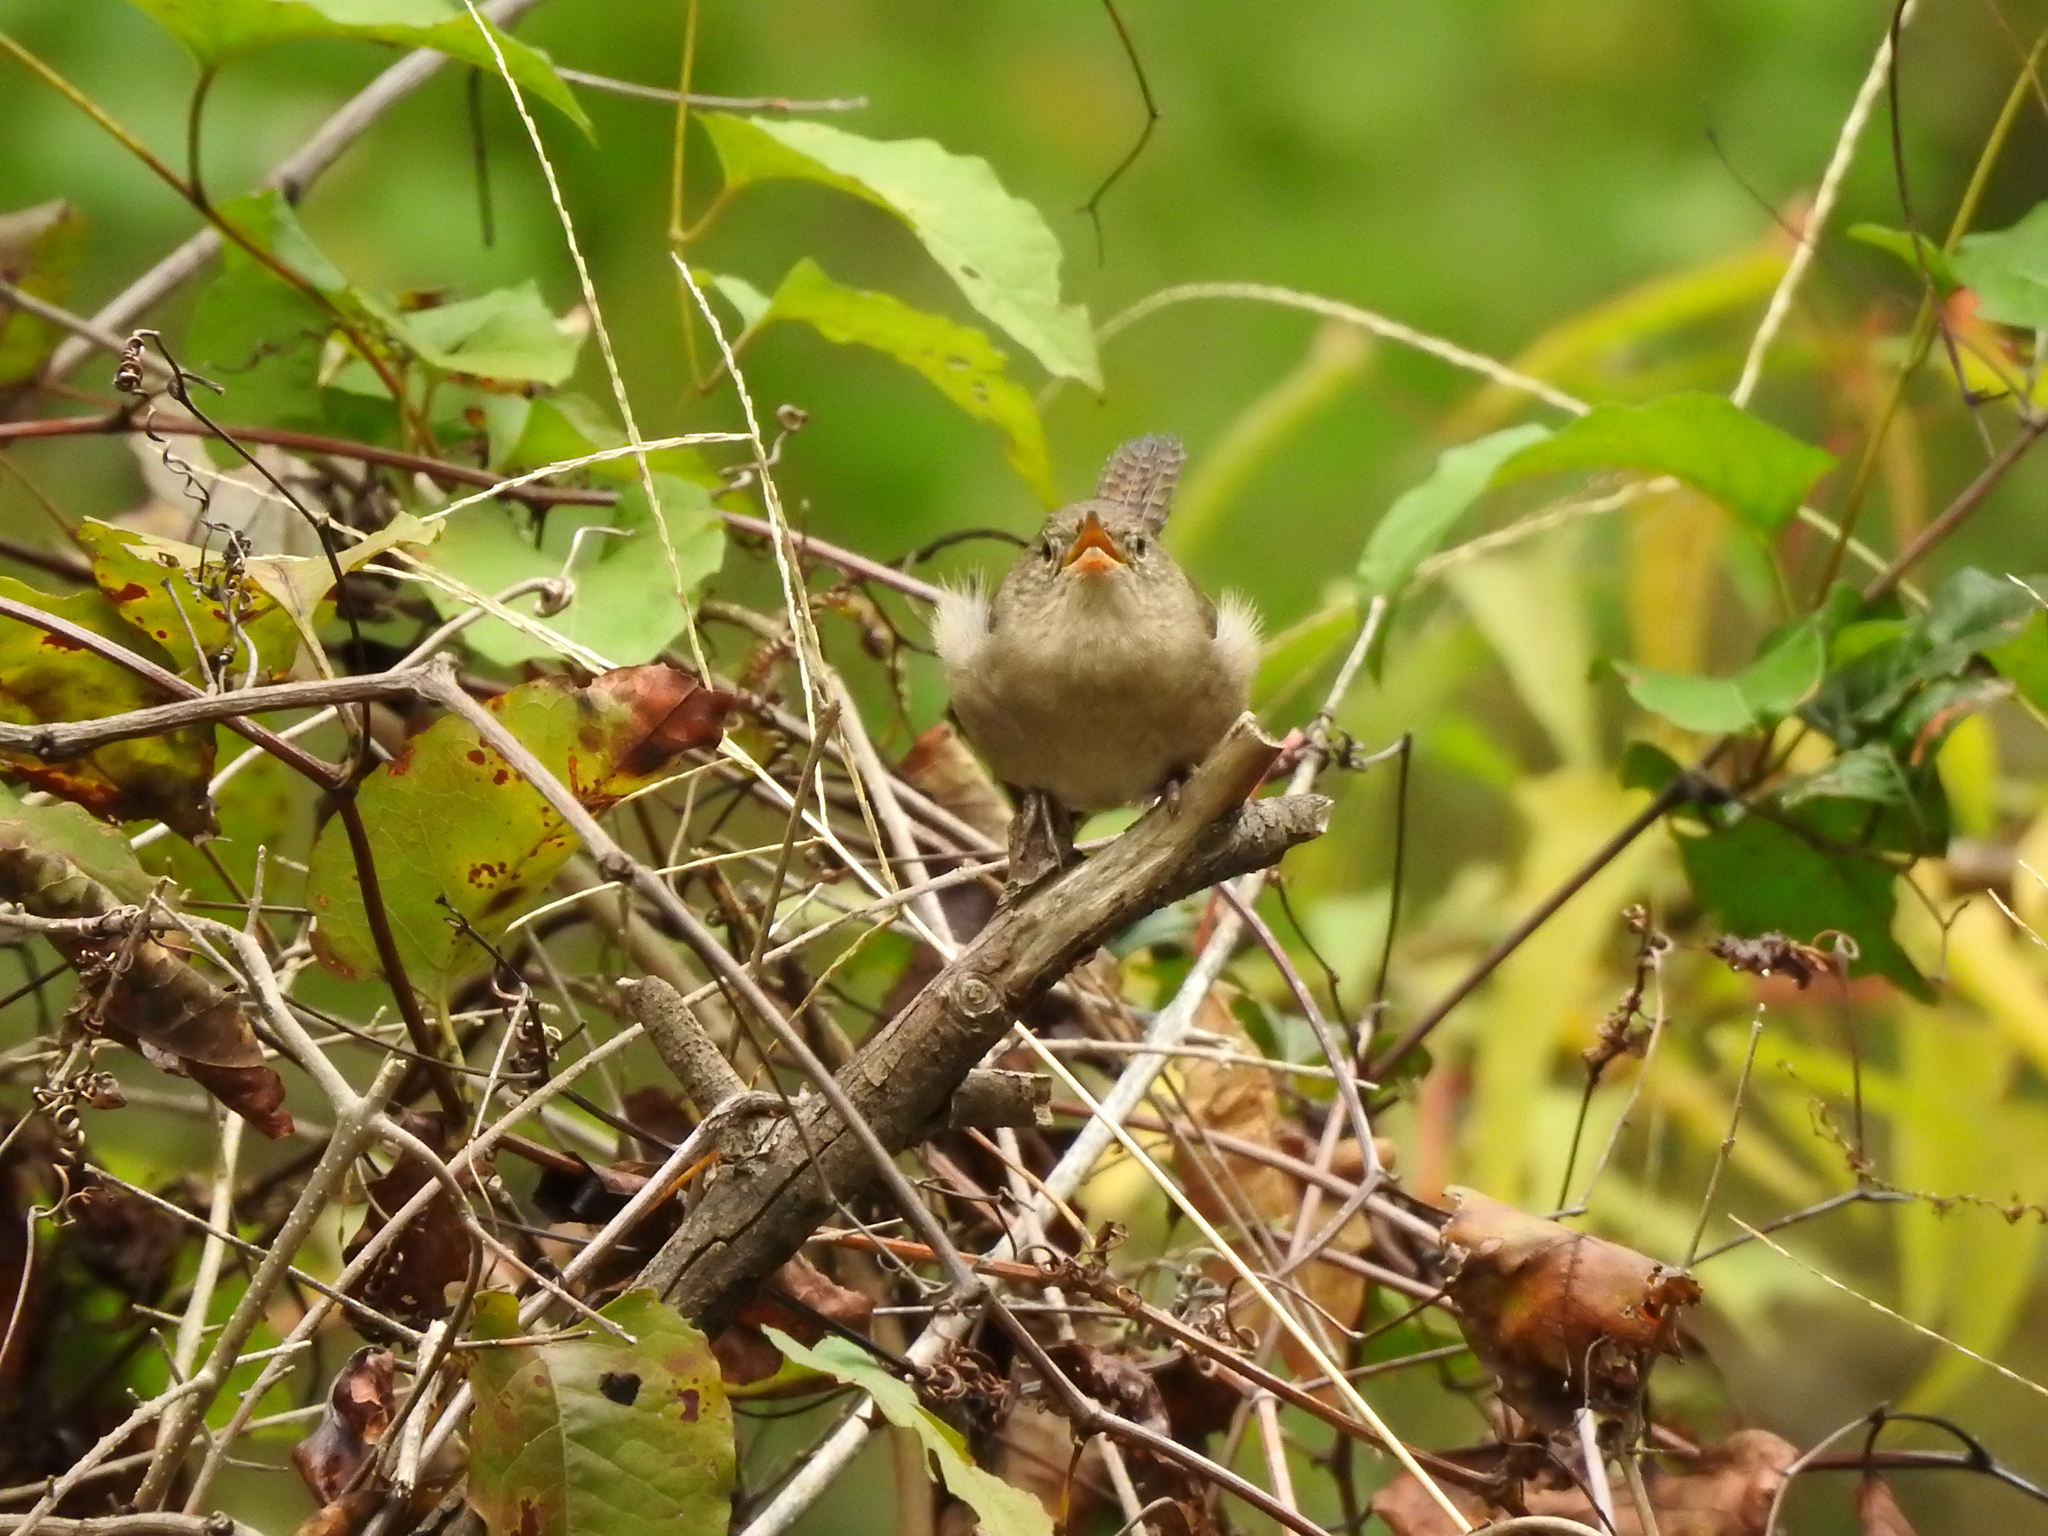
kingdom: Animalia
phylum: Chordata
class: Aves
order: Passeriformes
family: Troglodytidae
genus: Troglodytes
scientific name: Troglodytes aedon
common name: House wren
